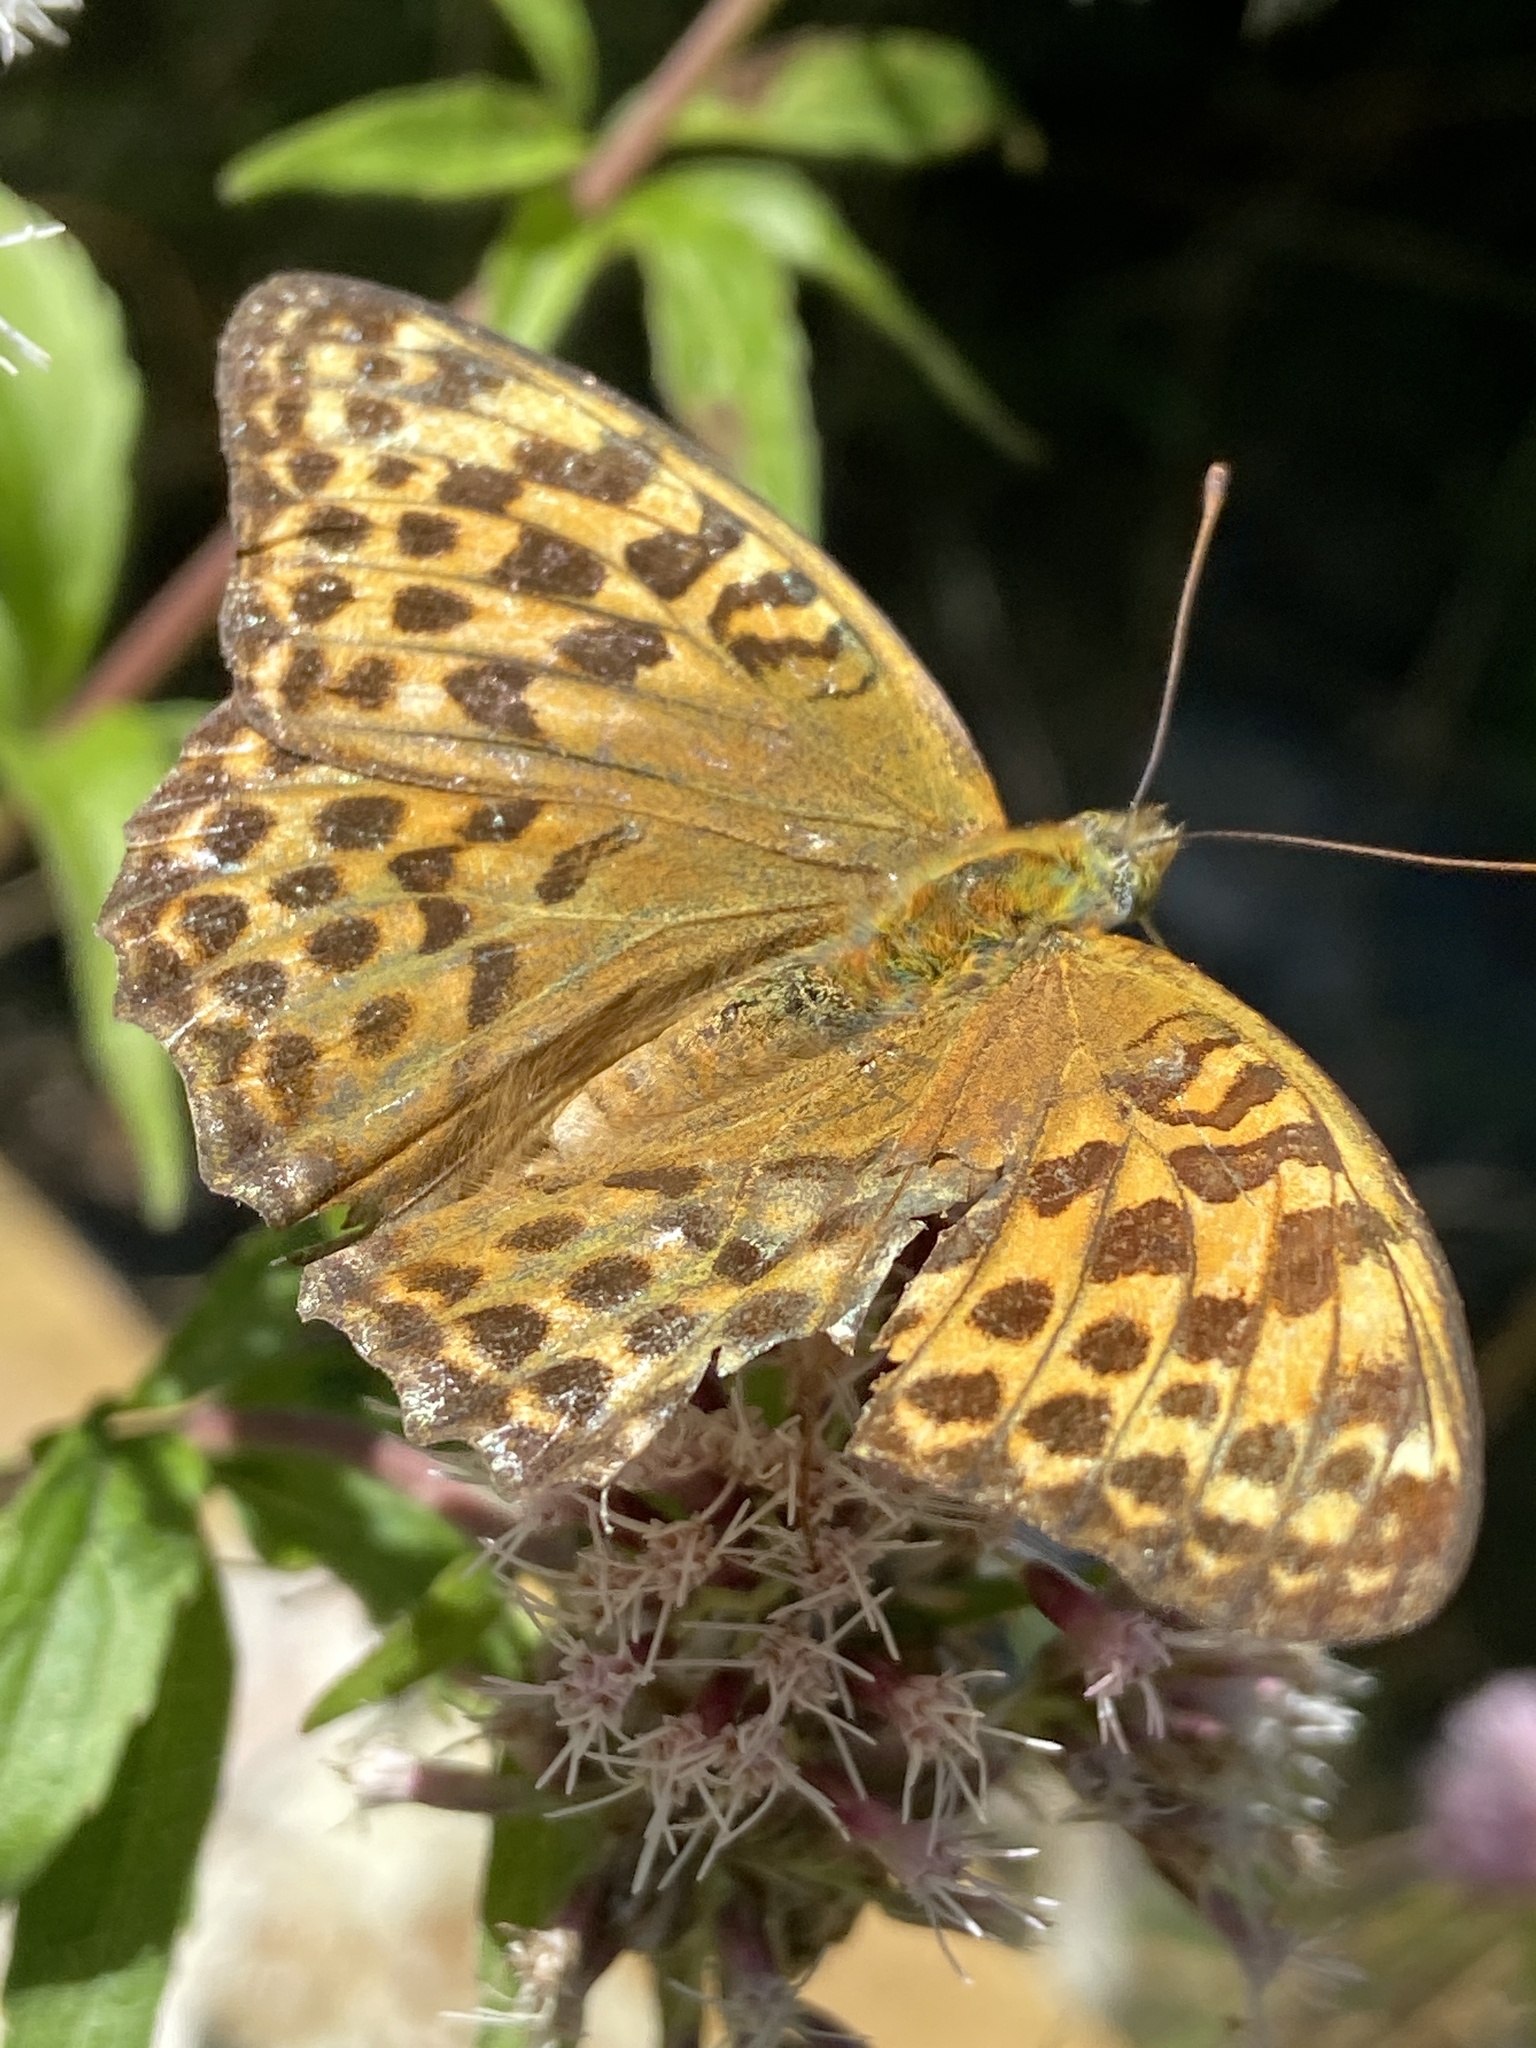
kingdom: Animalia
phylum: Arthropoda
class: Insecta
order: Lepidoptera
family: Nymphalidae
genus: Argynnis
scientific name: Argynnis paphia
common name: Silver-washed fritillary
